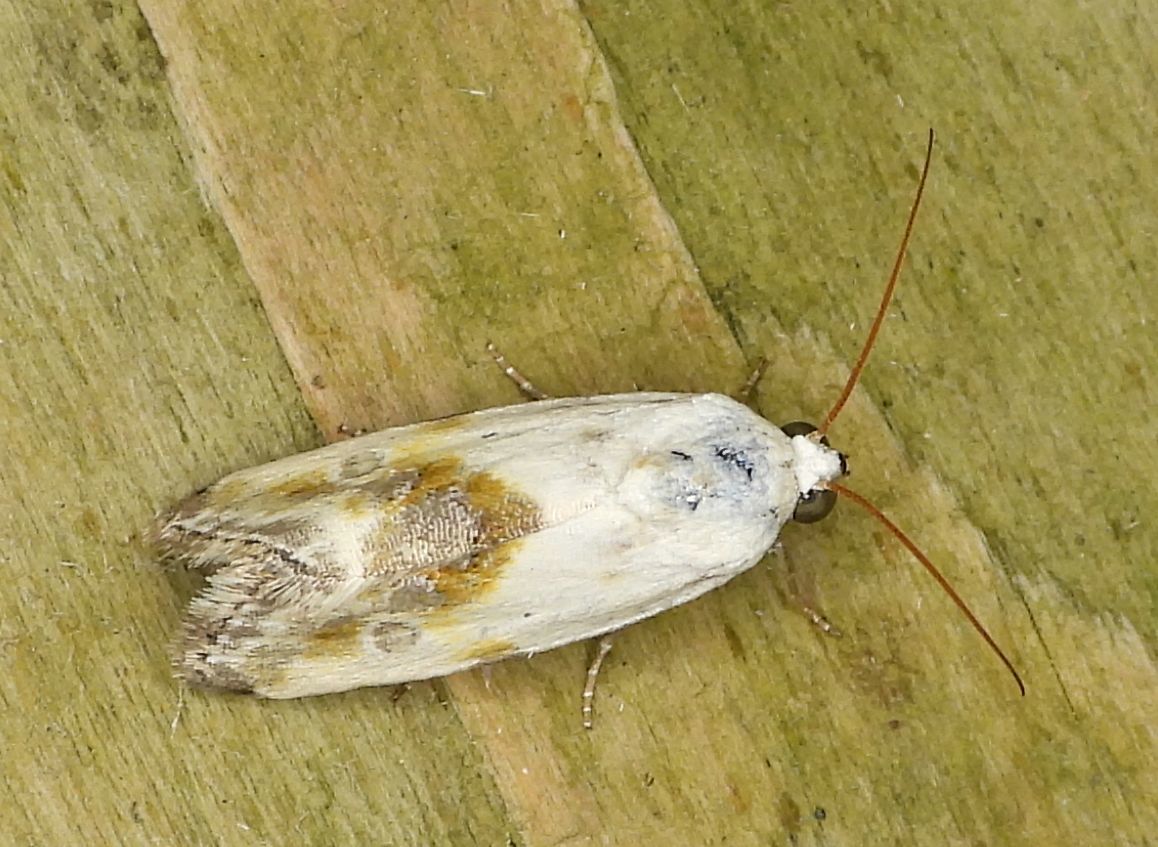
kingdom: Animalia
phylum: Arthropoda
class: Insecta
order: Lepidoptera
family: Noctuidae
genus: Acontia
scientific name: Acontia candefacta
